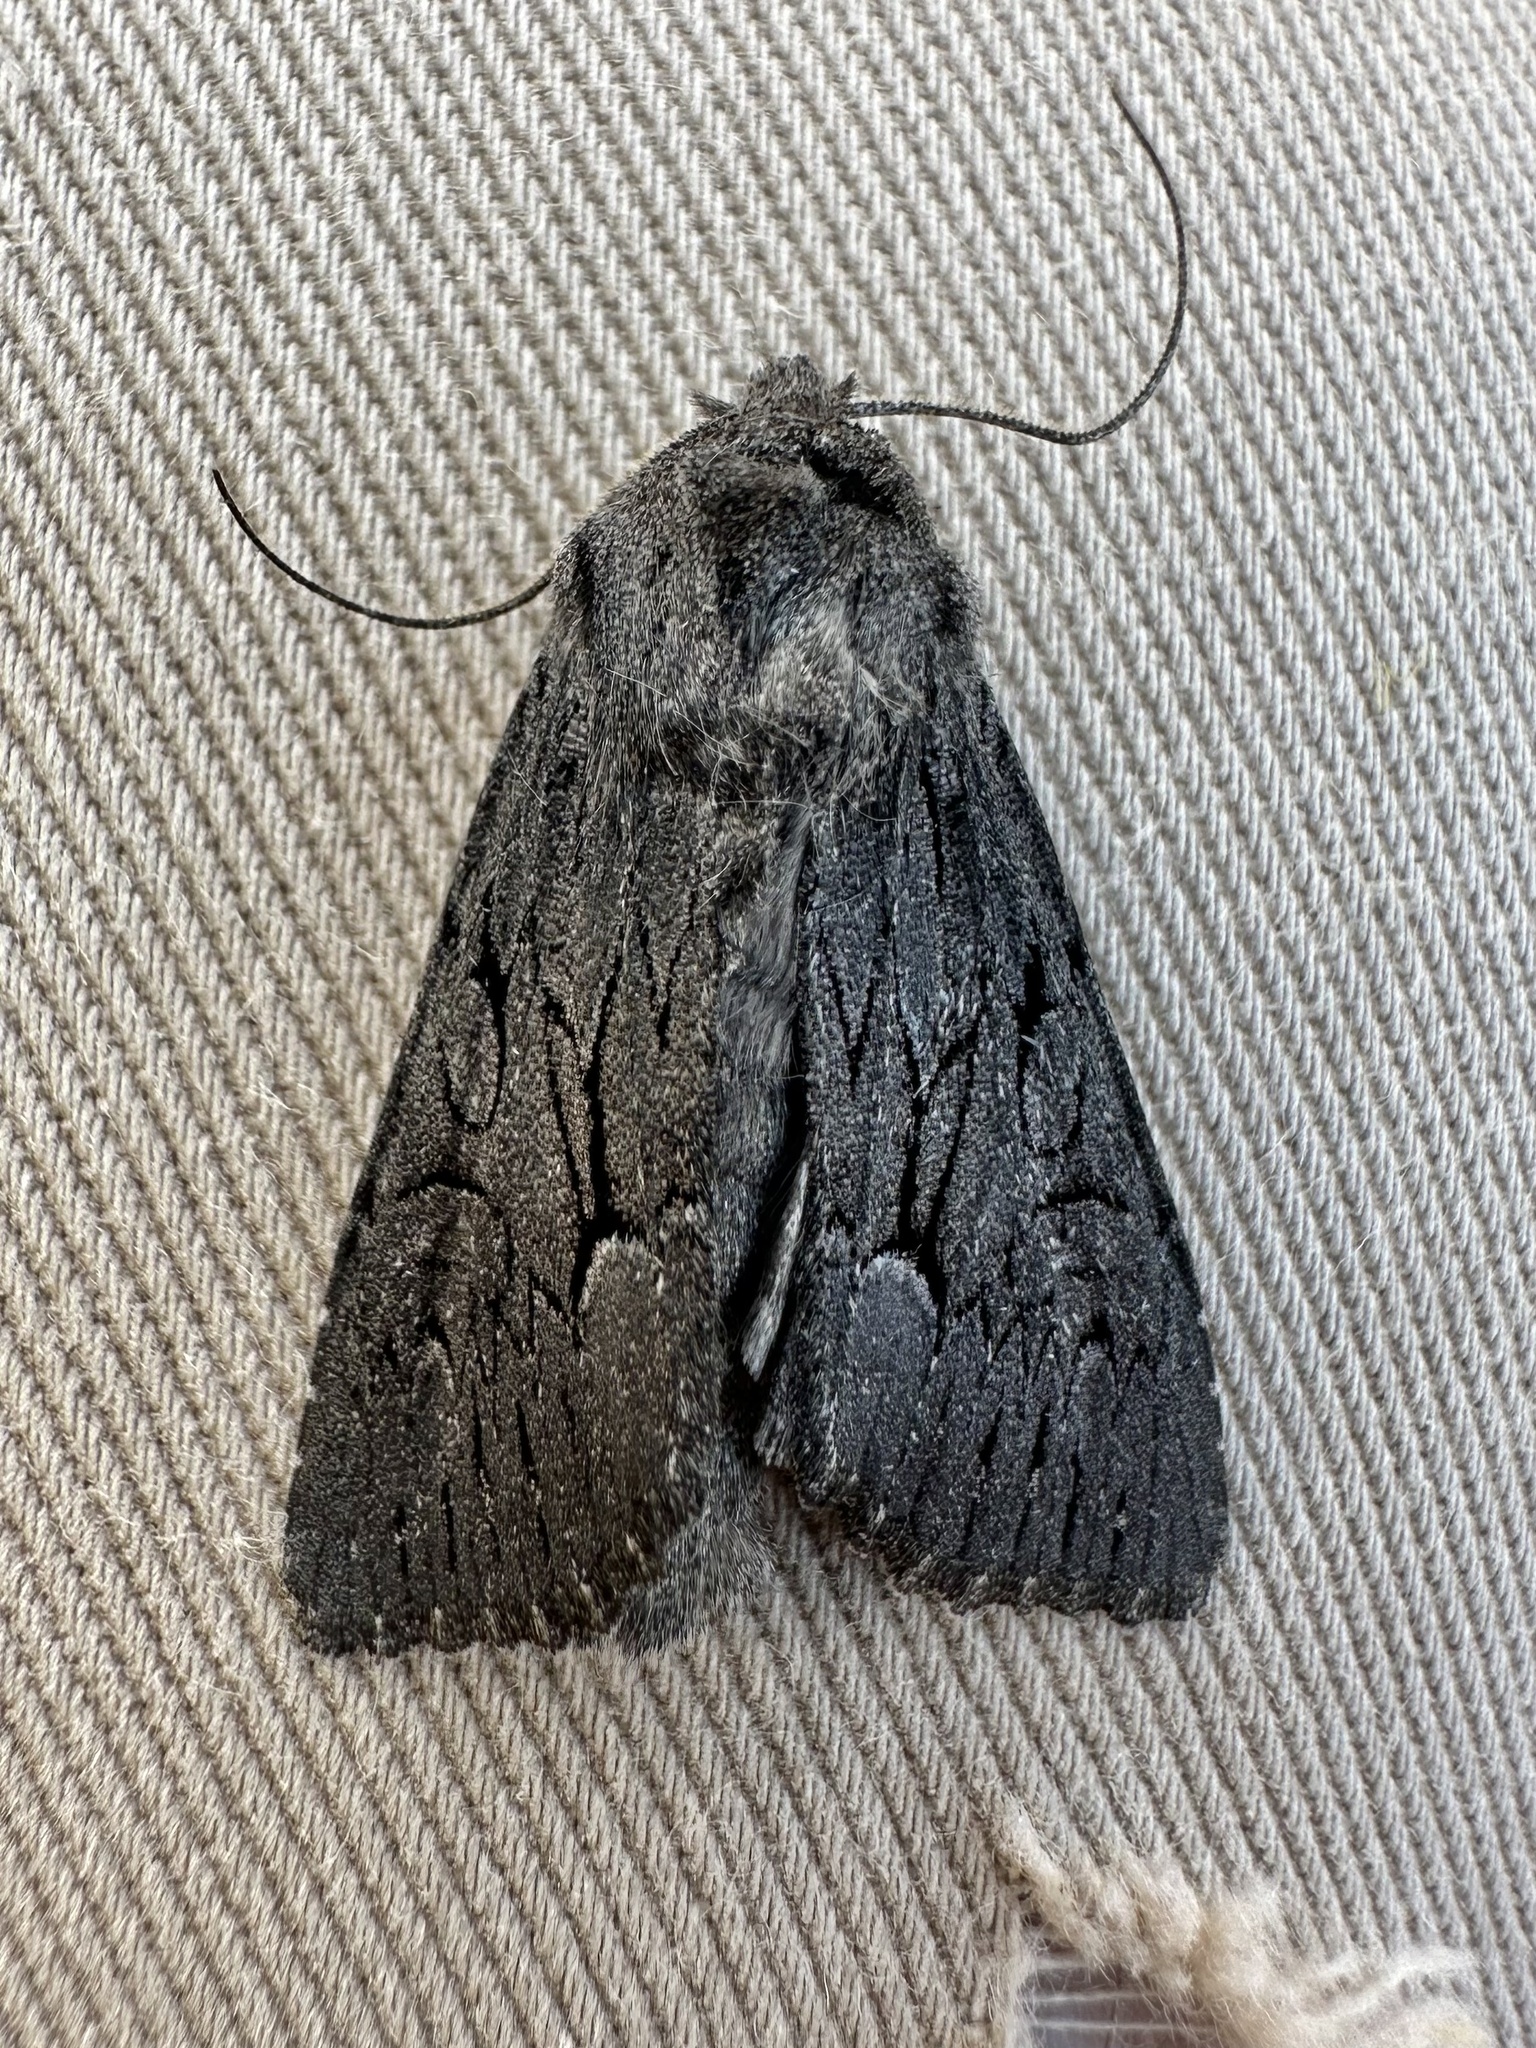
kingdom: Animalia
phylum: Arthropoda
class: Insecta
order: Lepidoptera
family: Noctuidae
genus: Fishia
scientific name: Fishia yosemitae
